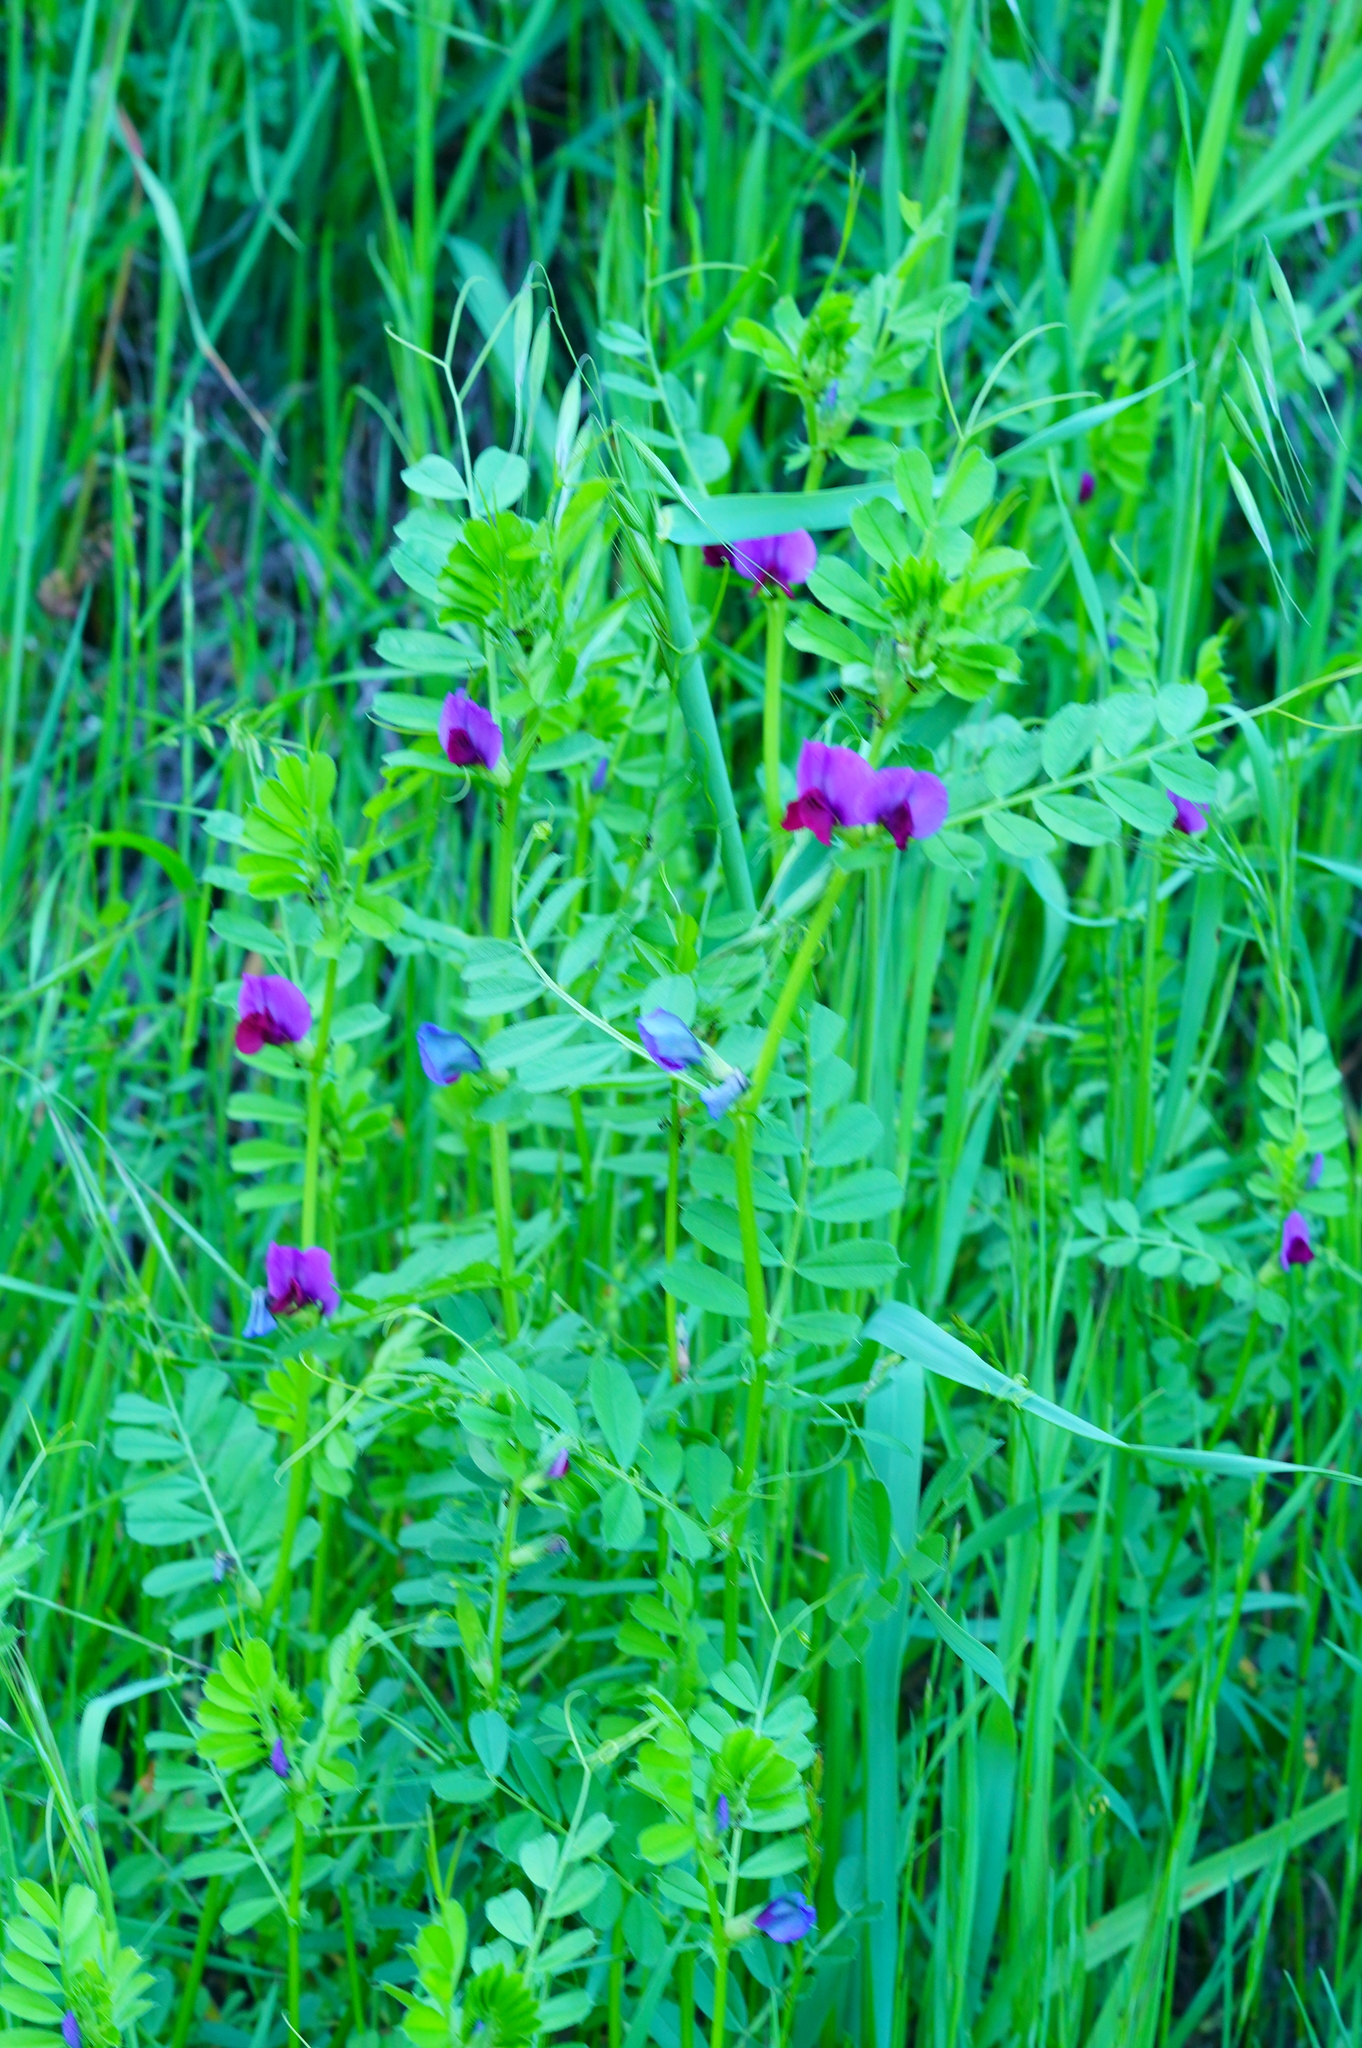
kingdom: Plantae
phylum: Tracheophyta
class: Magnoliopsida
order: Fabales
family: Fabaceae
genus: Vicia
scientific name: Vicia sativa
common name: Garden vetch
